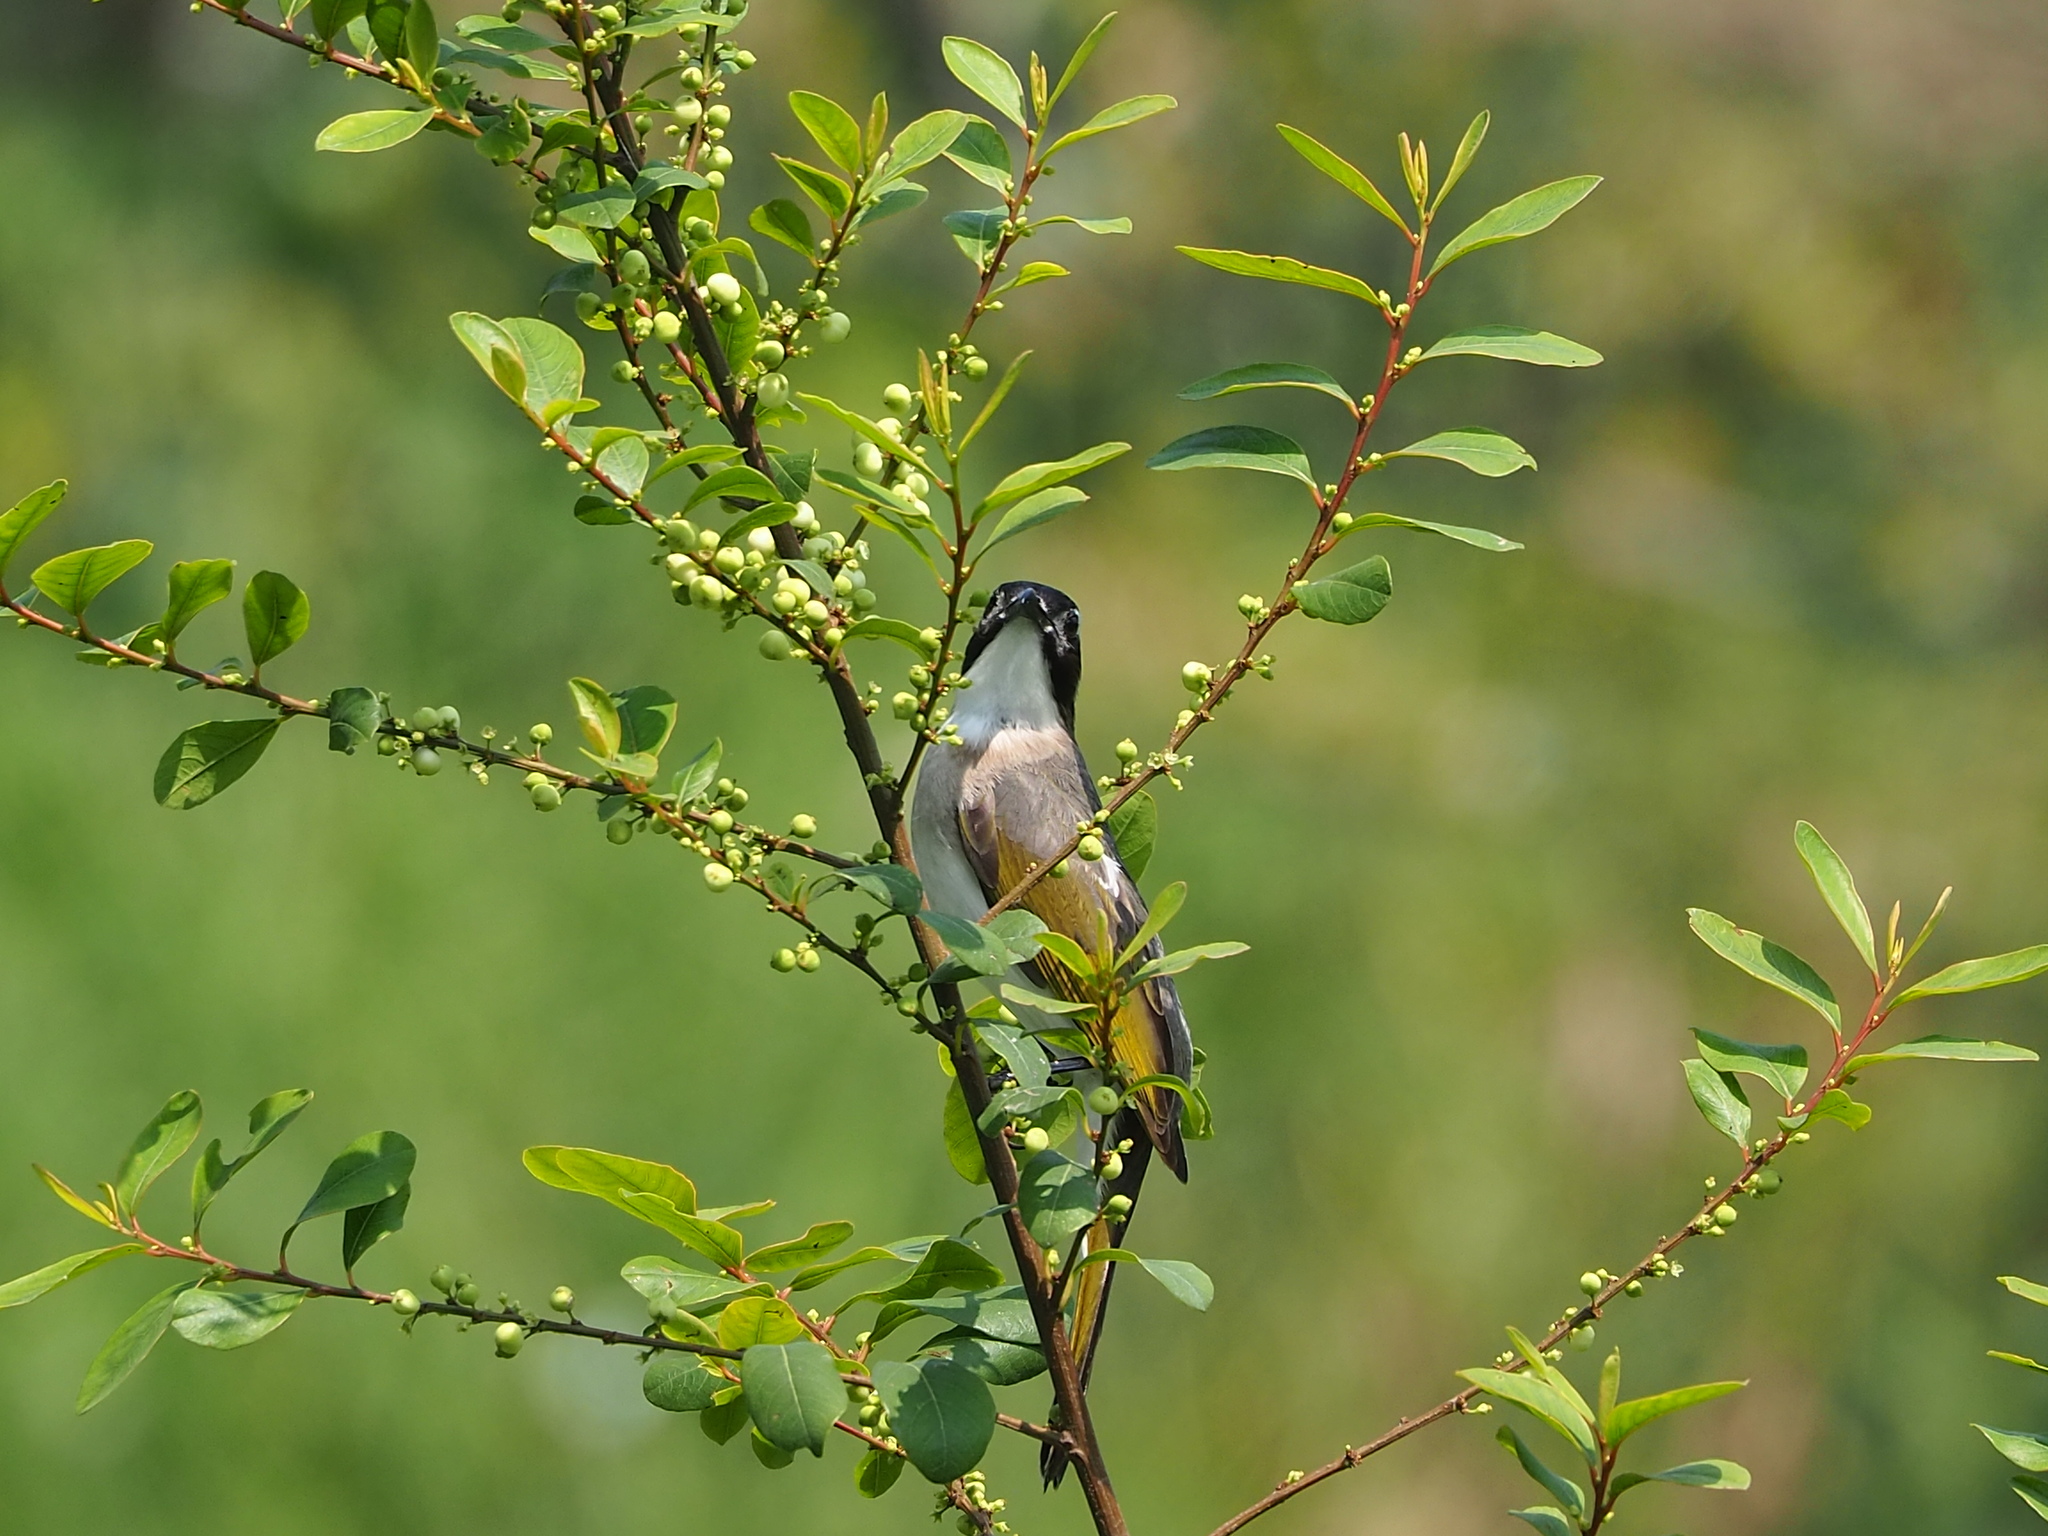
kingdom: Animalia
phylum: Chordata
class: Aves
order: Passeriformes
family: Pycnonotidae
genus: Pycnonotus
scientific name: Pycnonotus sinensis
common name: Light-vented bulbul
